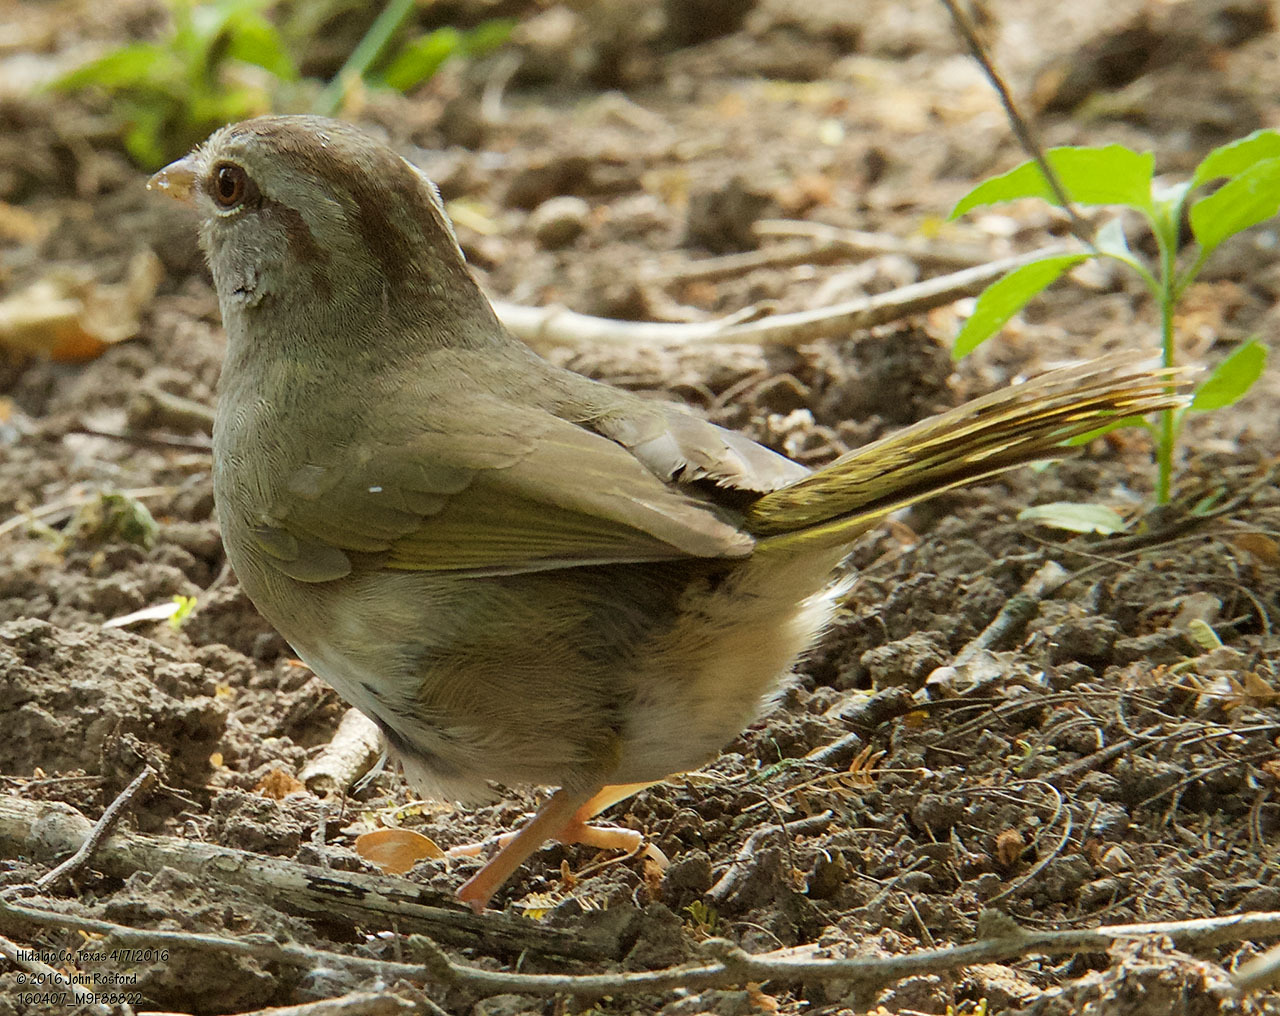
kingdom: Animalia
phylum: Chordata
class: Aves
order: Passeriformes
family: Passerellidae
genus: Arremonops
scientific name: Arremonops rufivirgatus
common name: Olive sparrow
